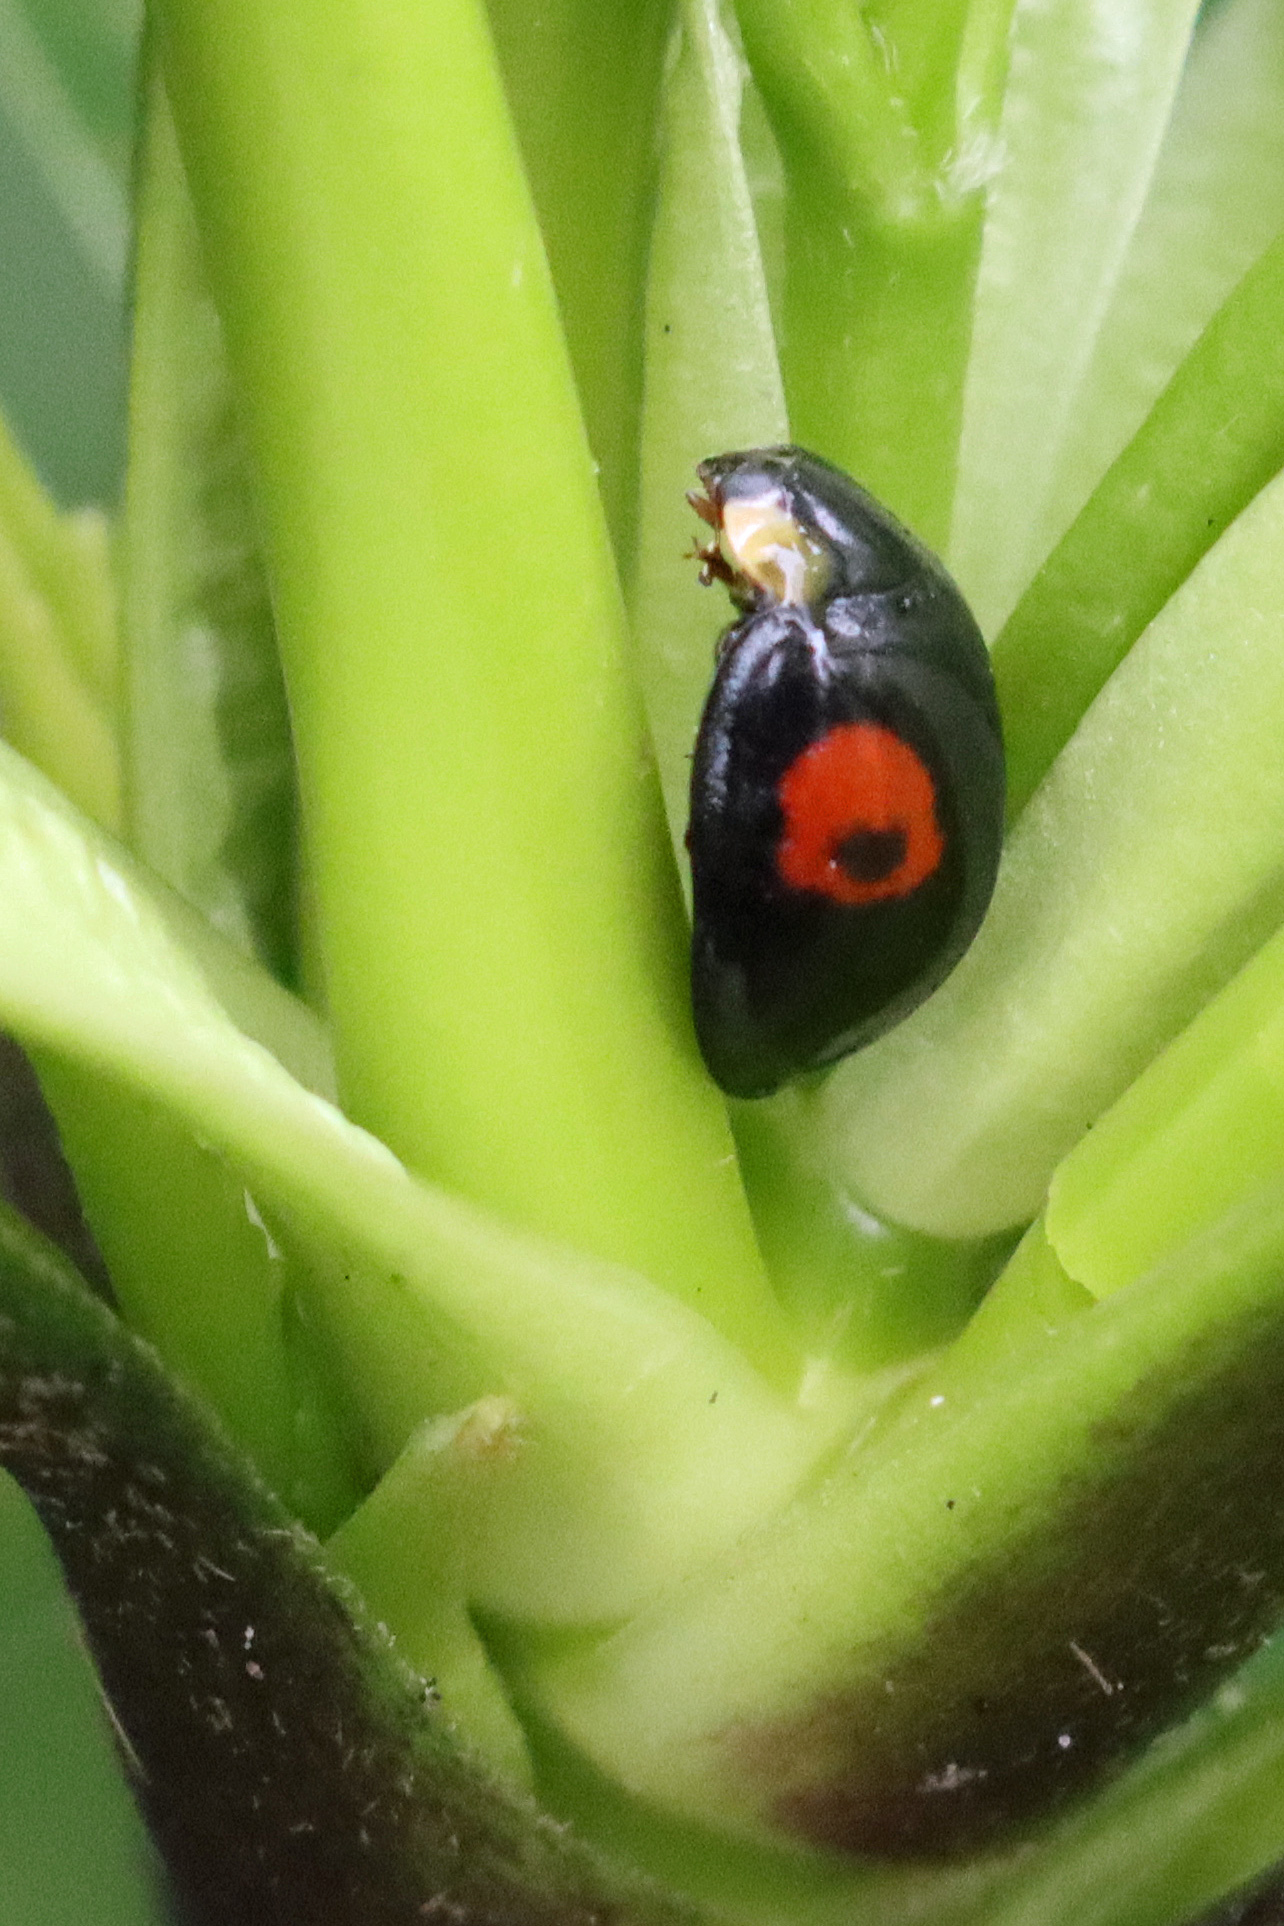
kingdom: Animalia
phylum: Arthropoda
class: Insecta
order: Coleoptera
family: Coccinellidae
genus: Harmonia
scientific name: Harmonia axyridis
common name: Harlequin ladybird
